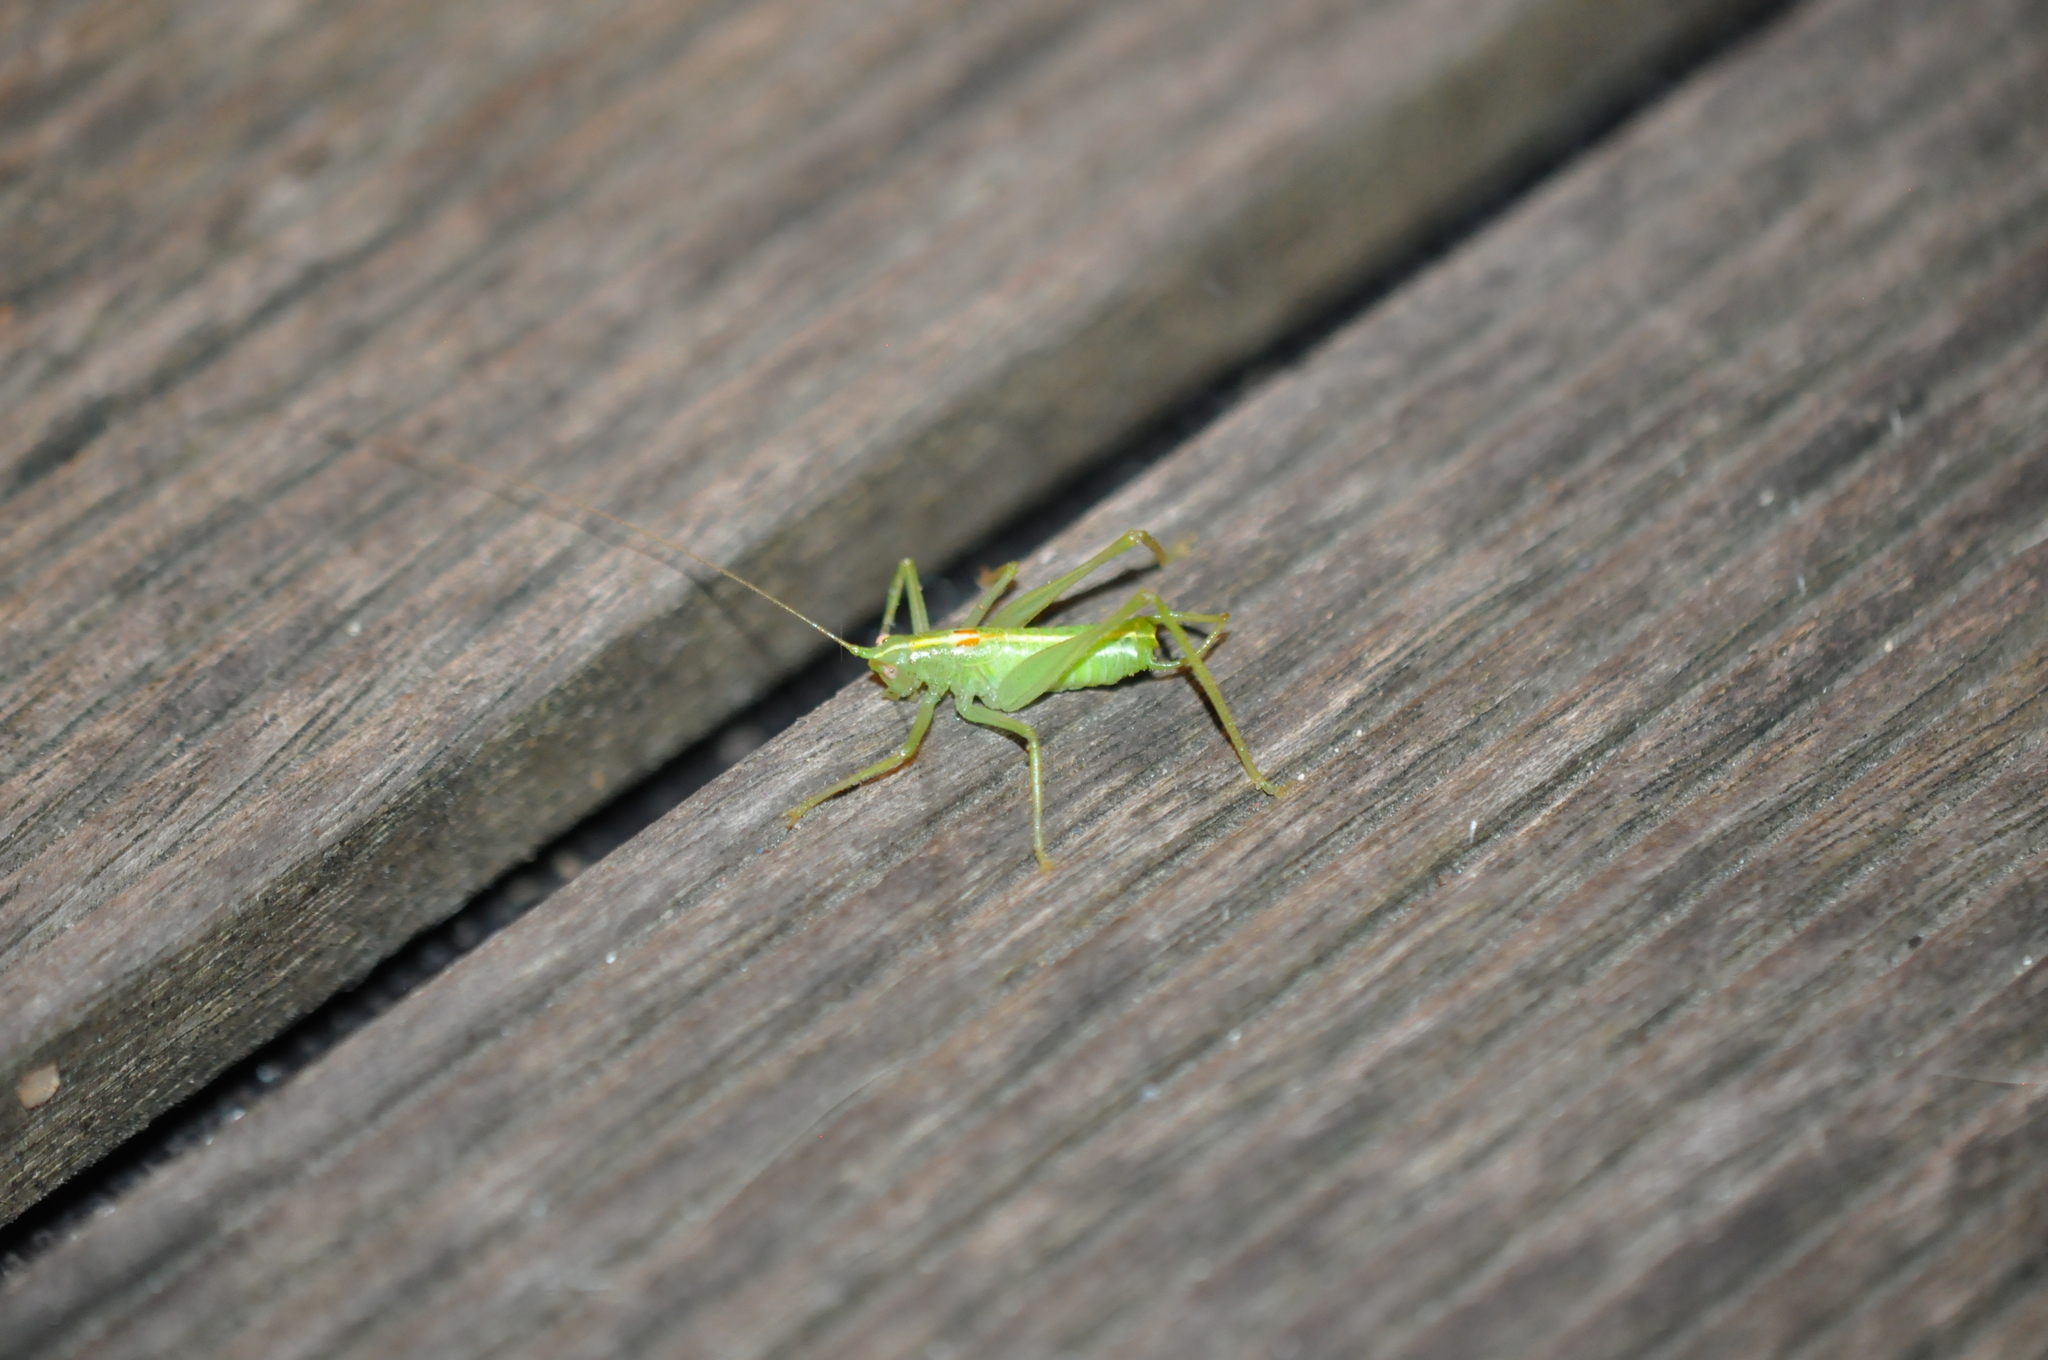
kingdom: Animalia
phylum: Arthropoda
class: Insecta
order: Orthoptera
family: Tettigoniidae
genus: Meconema
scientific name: Meconema meridionale
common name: Southern oak bush-cricket
